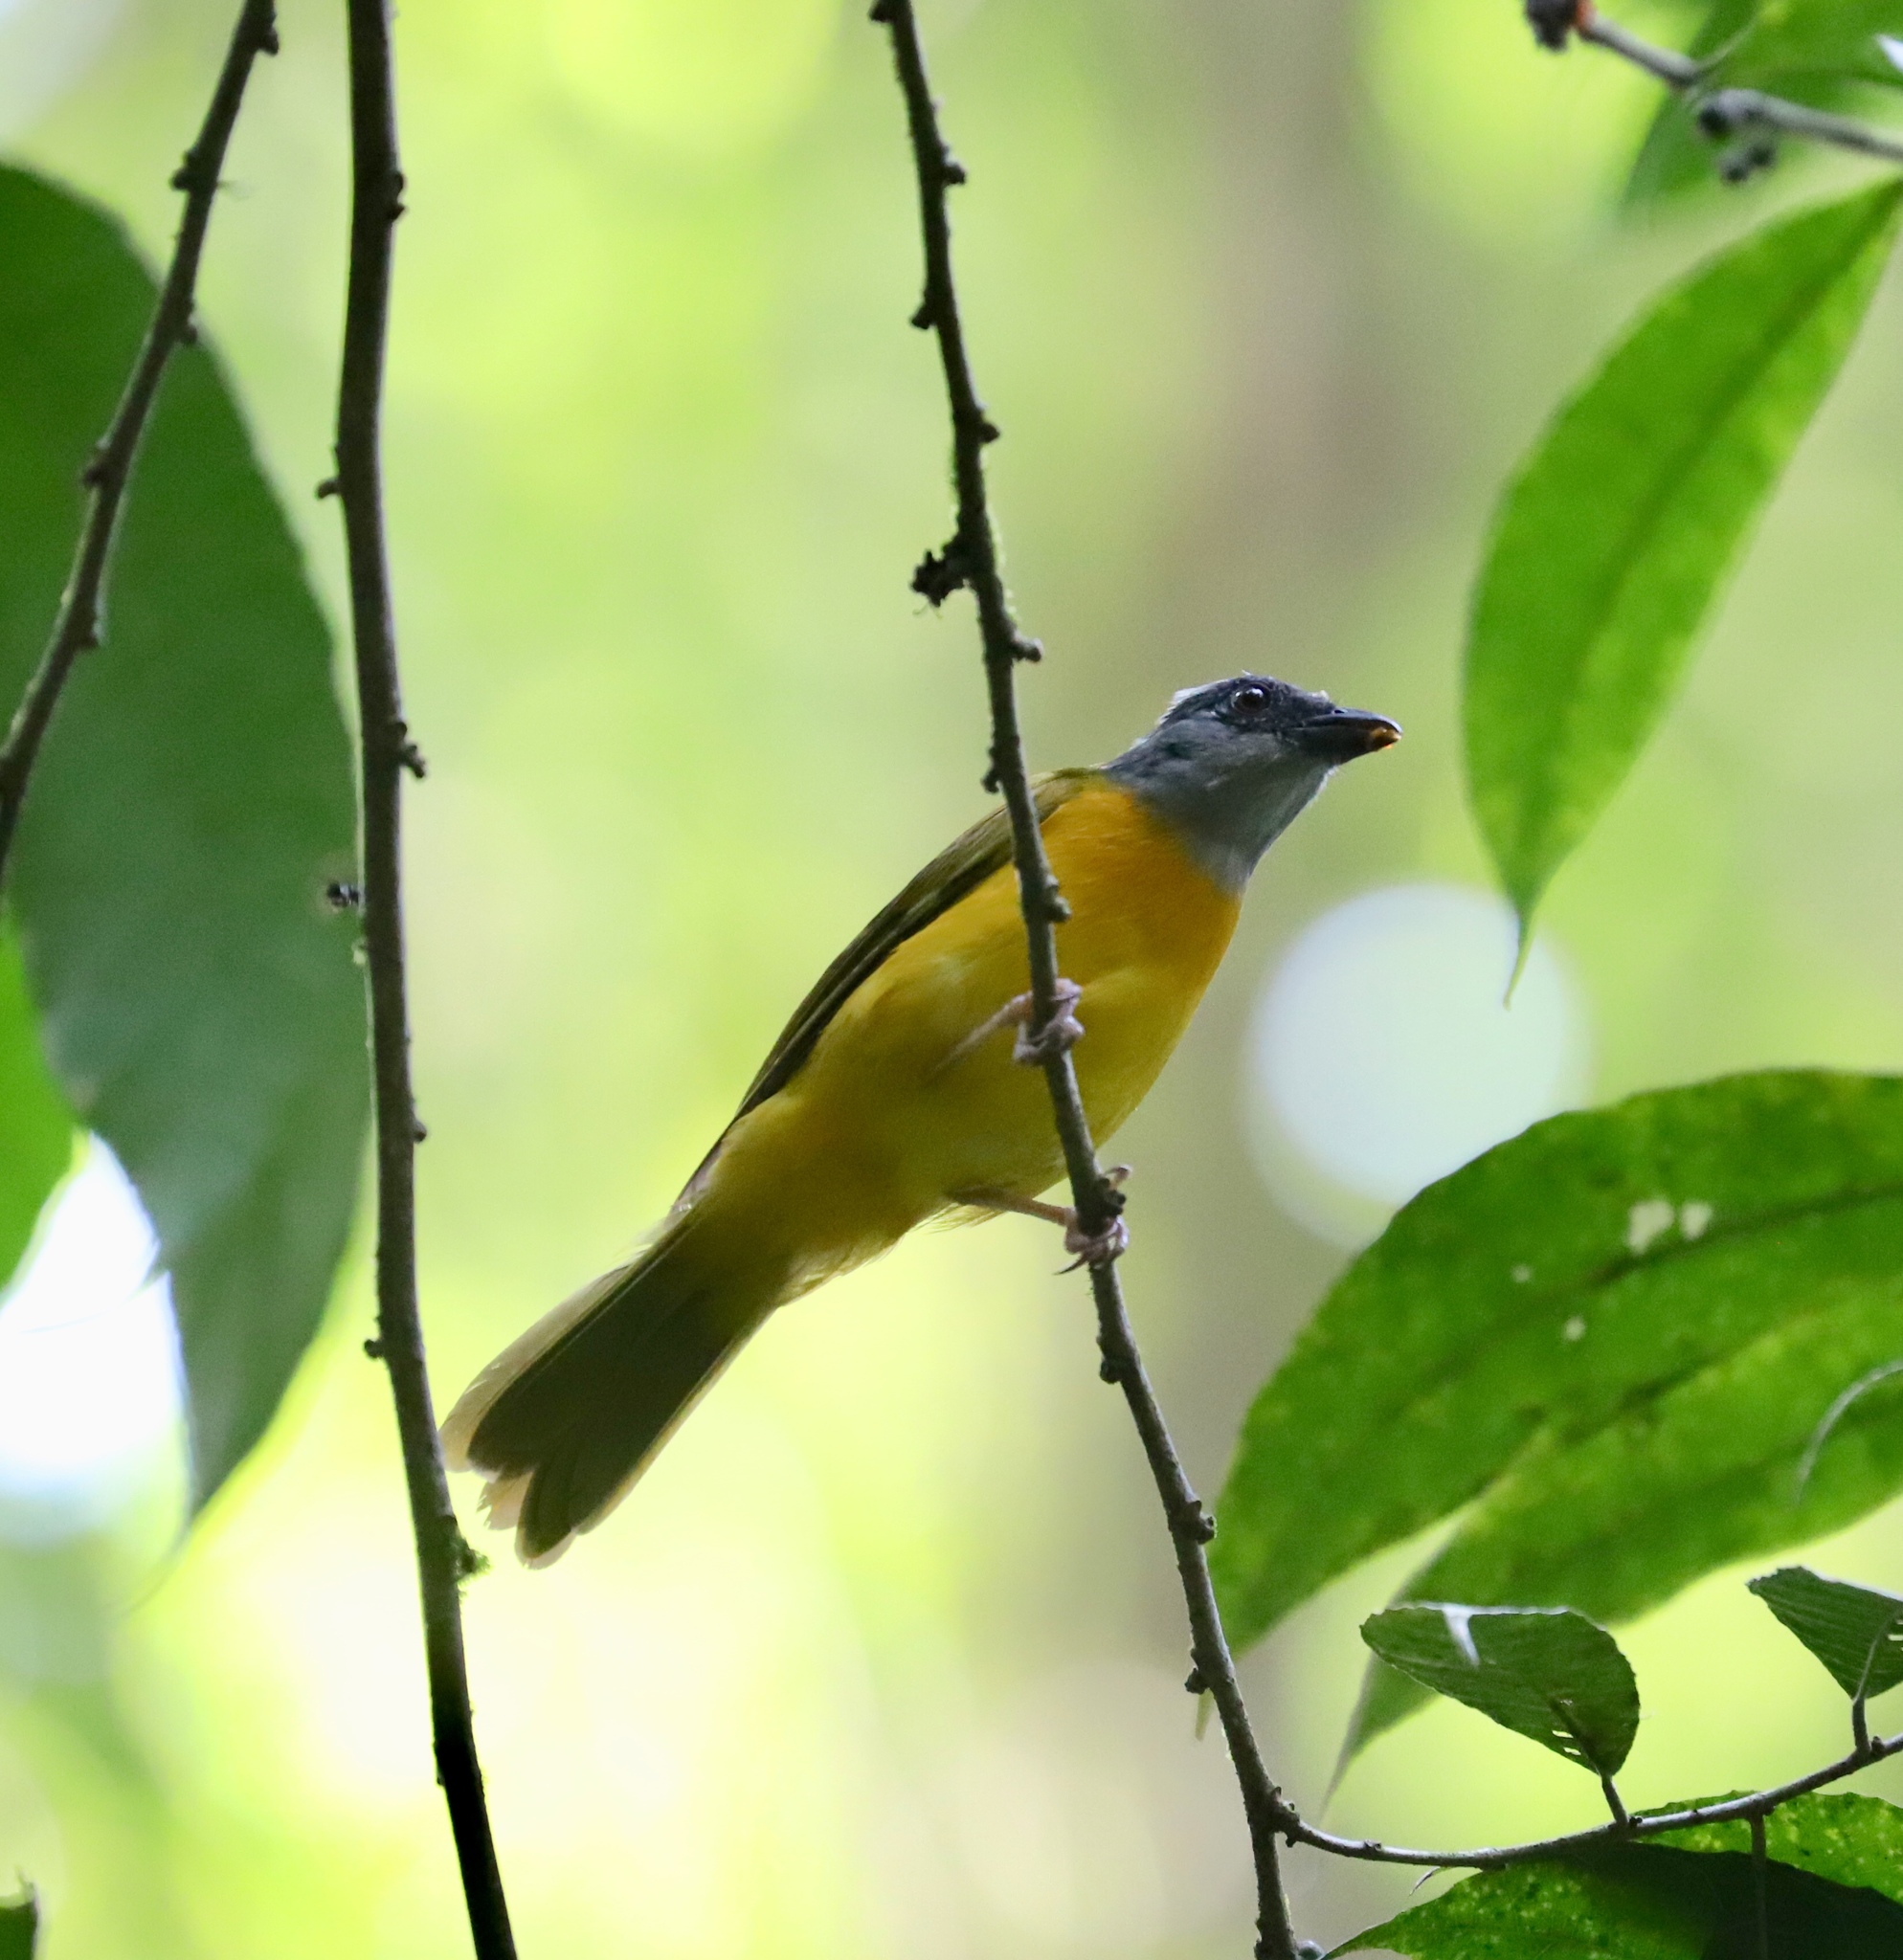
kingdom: Animalia
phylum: Chordata
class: Aves
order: Passeriformes
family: Thraupidae
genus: Eucometis
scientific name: Eucometis penicillata
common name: Grey-headed tanager
